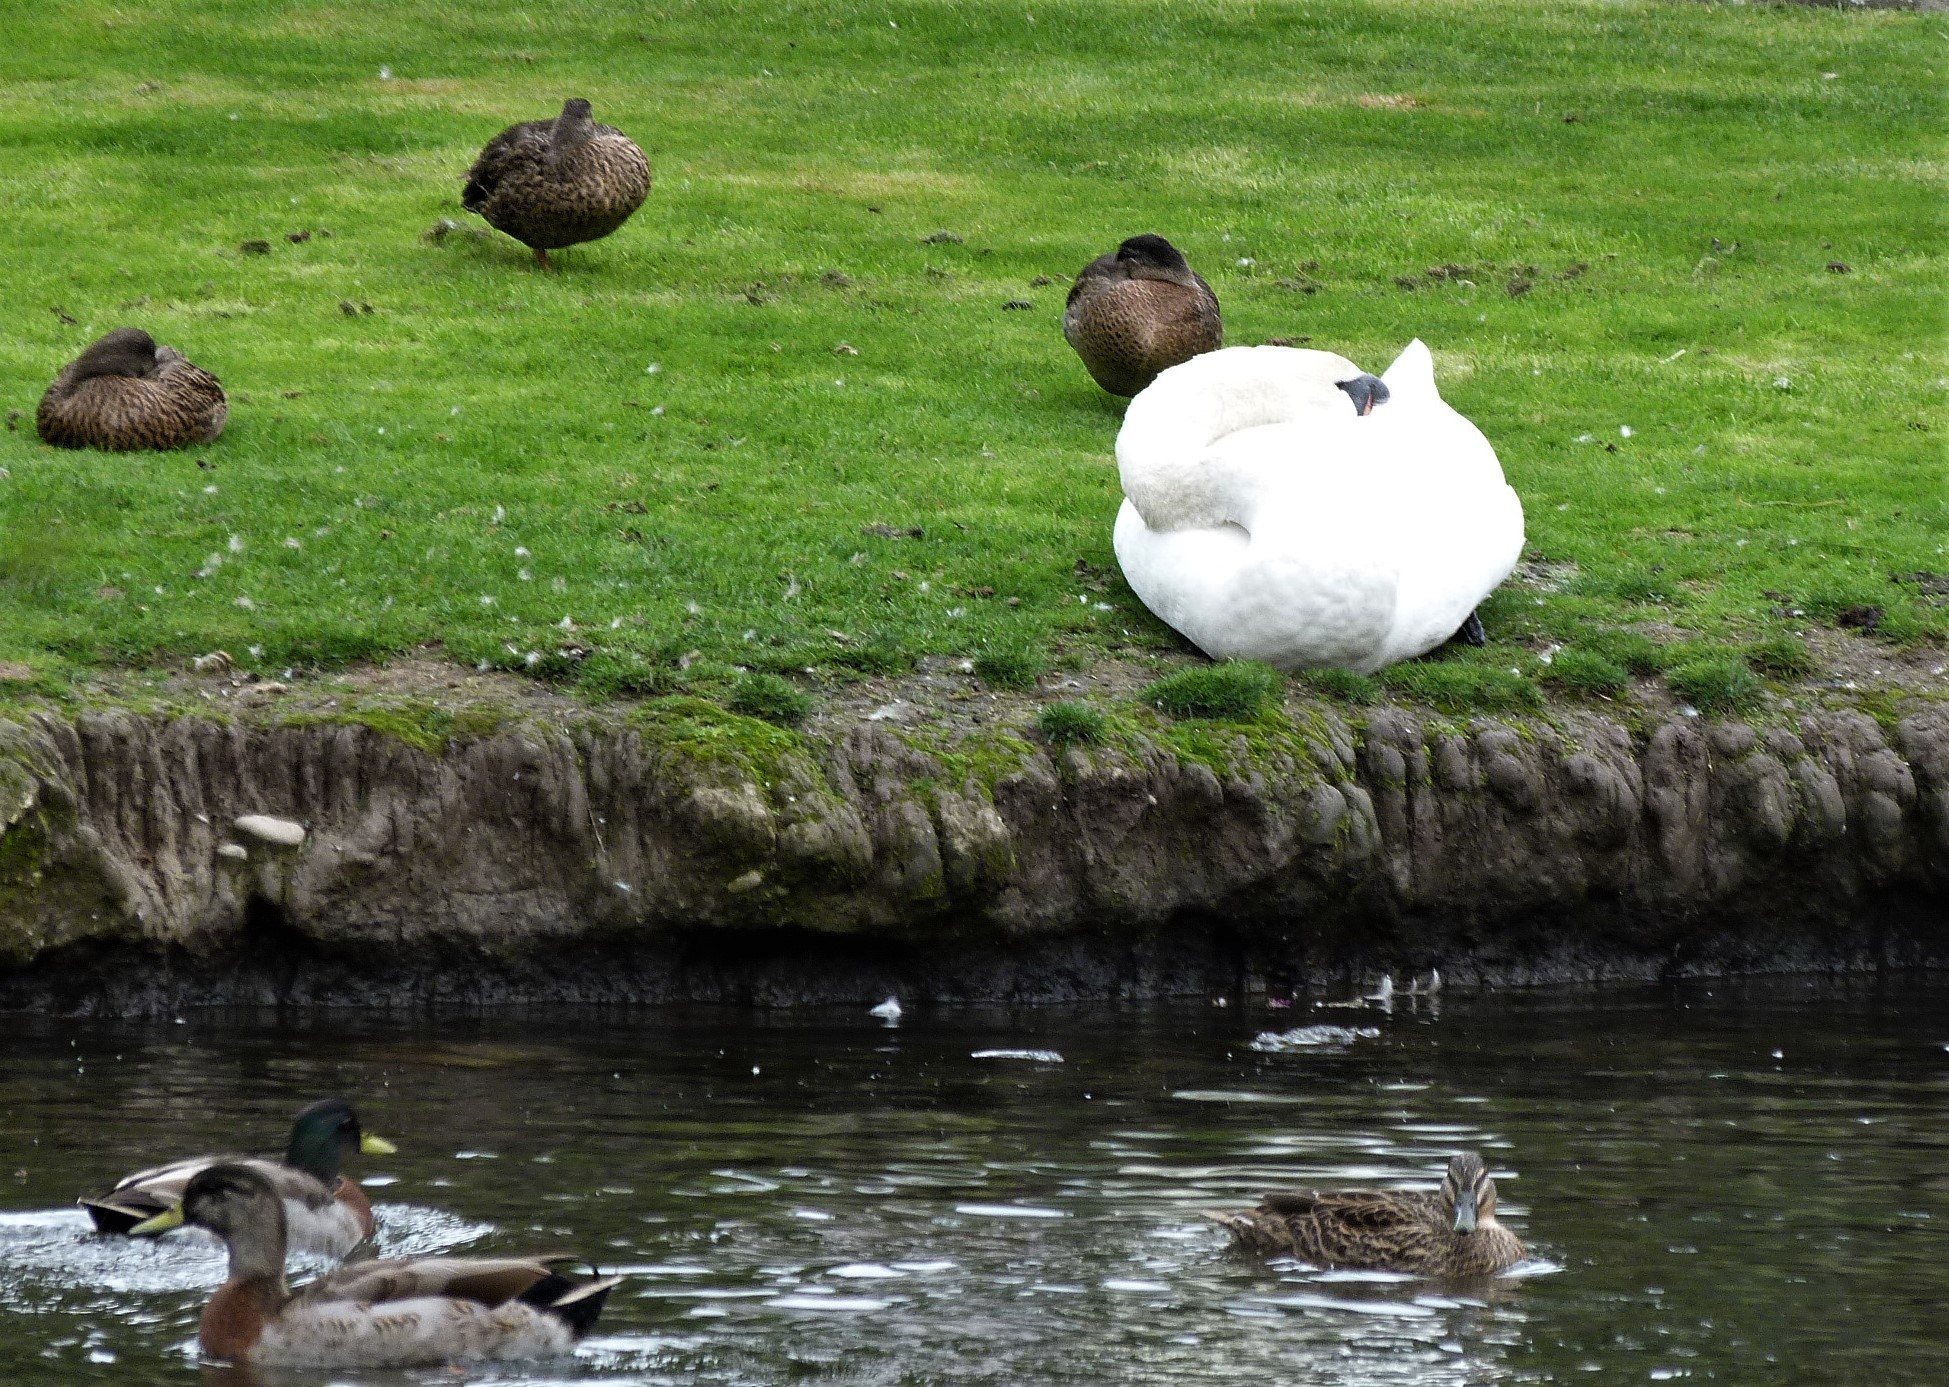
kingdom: Animalia
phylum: Chordata
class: Aves
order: Anseriformes
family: Anatidae
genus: Anas
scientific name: Anas
